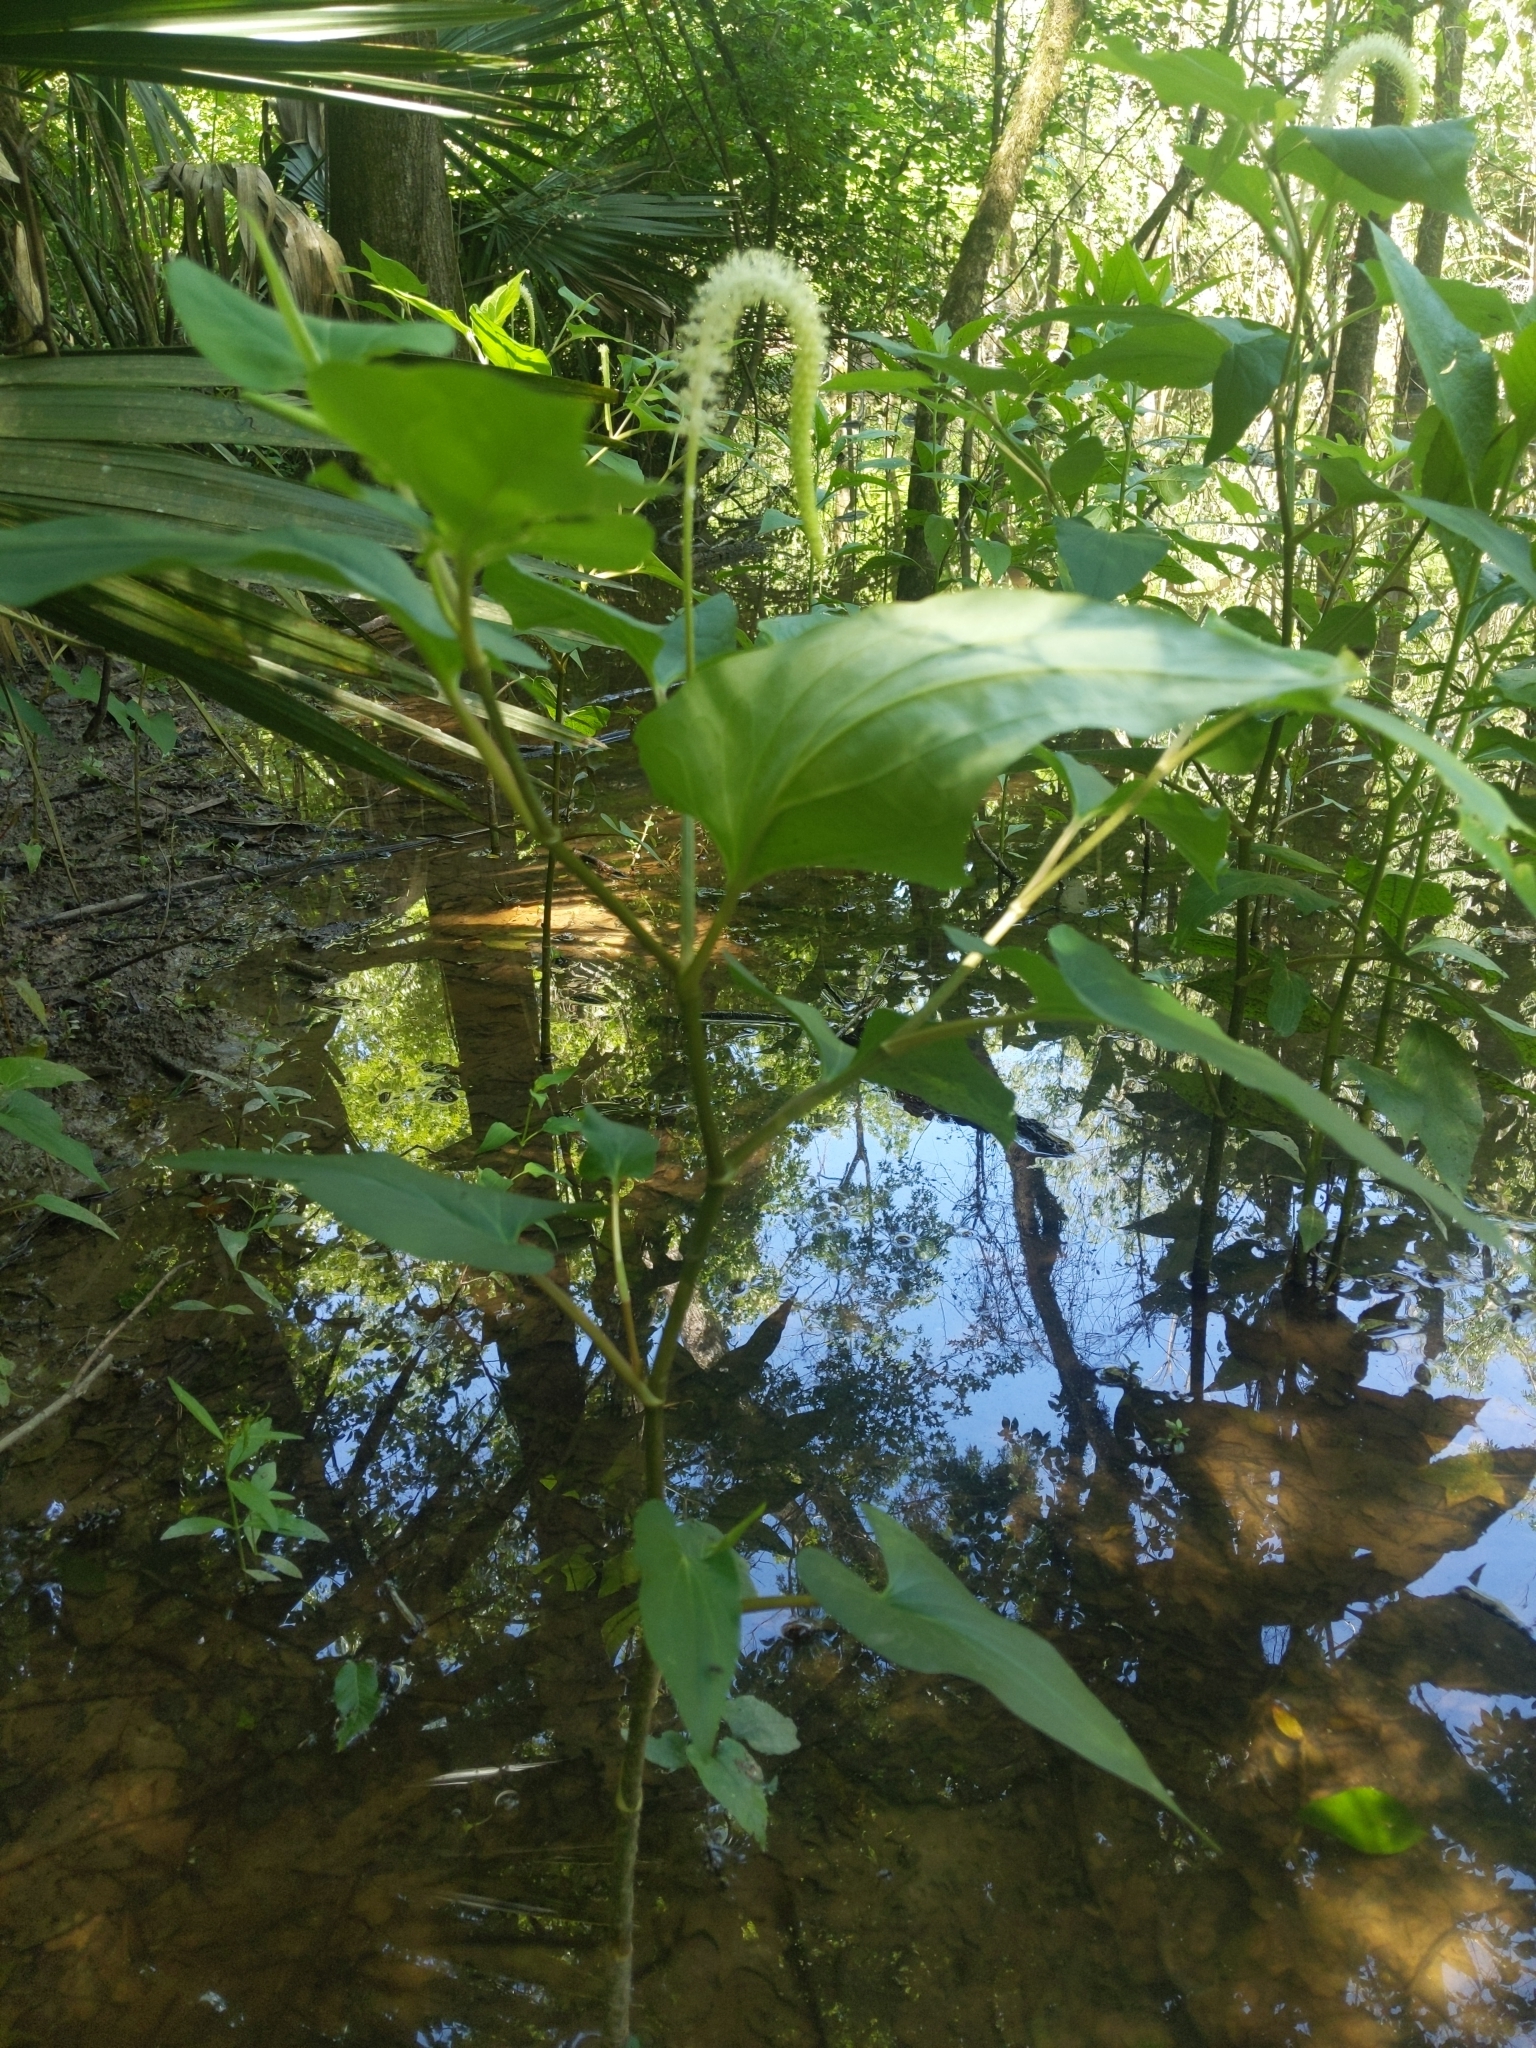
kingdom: Plantae
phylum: Tracheophyta
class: Magnoliopsida
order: Piperales
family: Saururaceae
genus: Saururus
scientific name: Saururus cernuus
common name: Lizard's-tail
